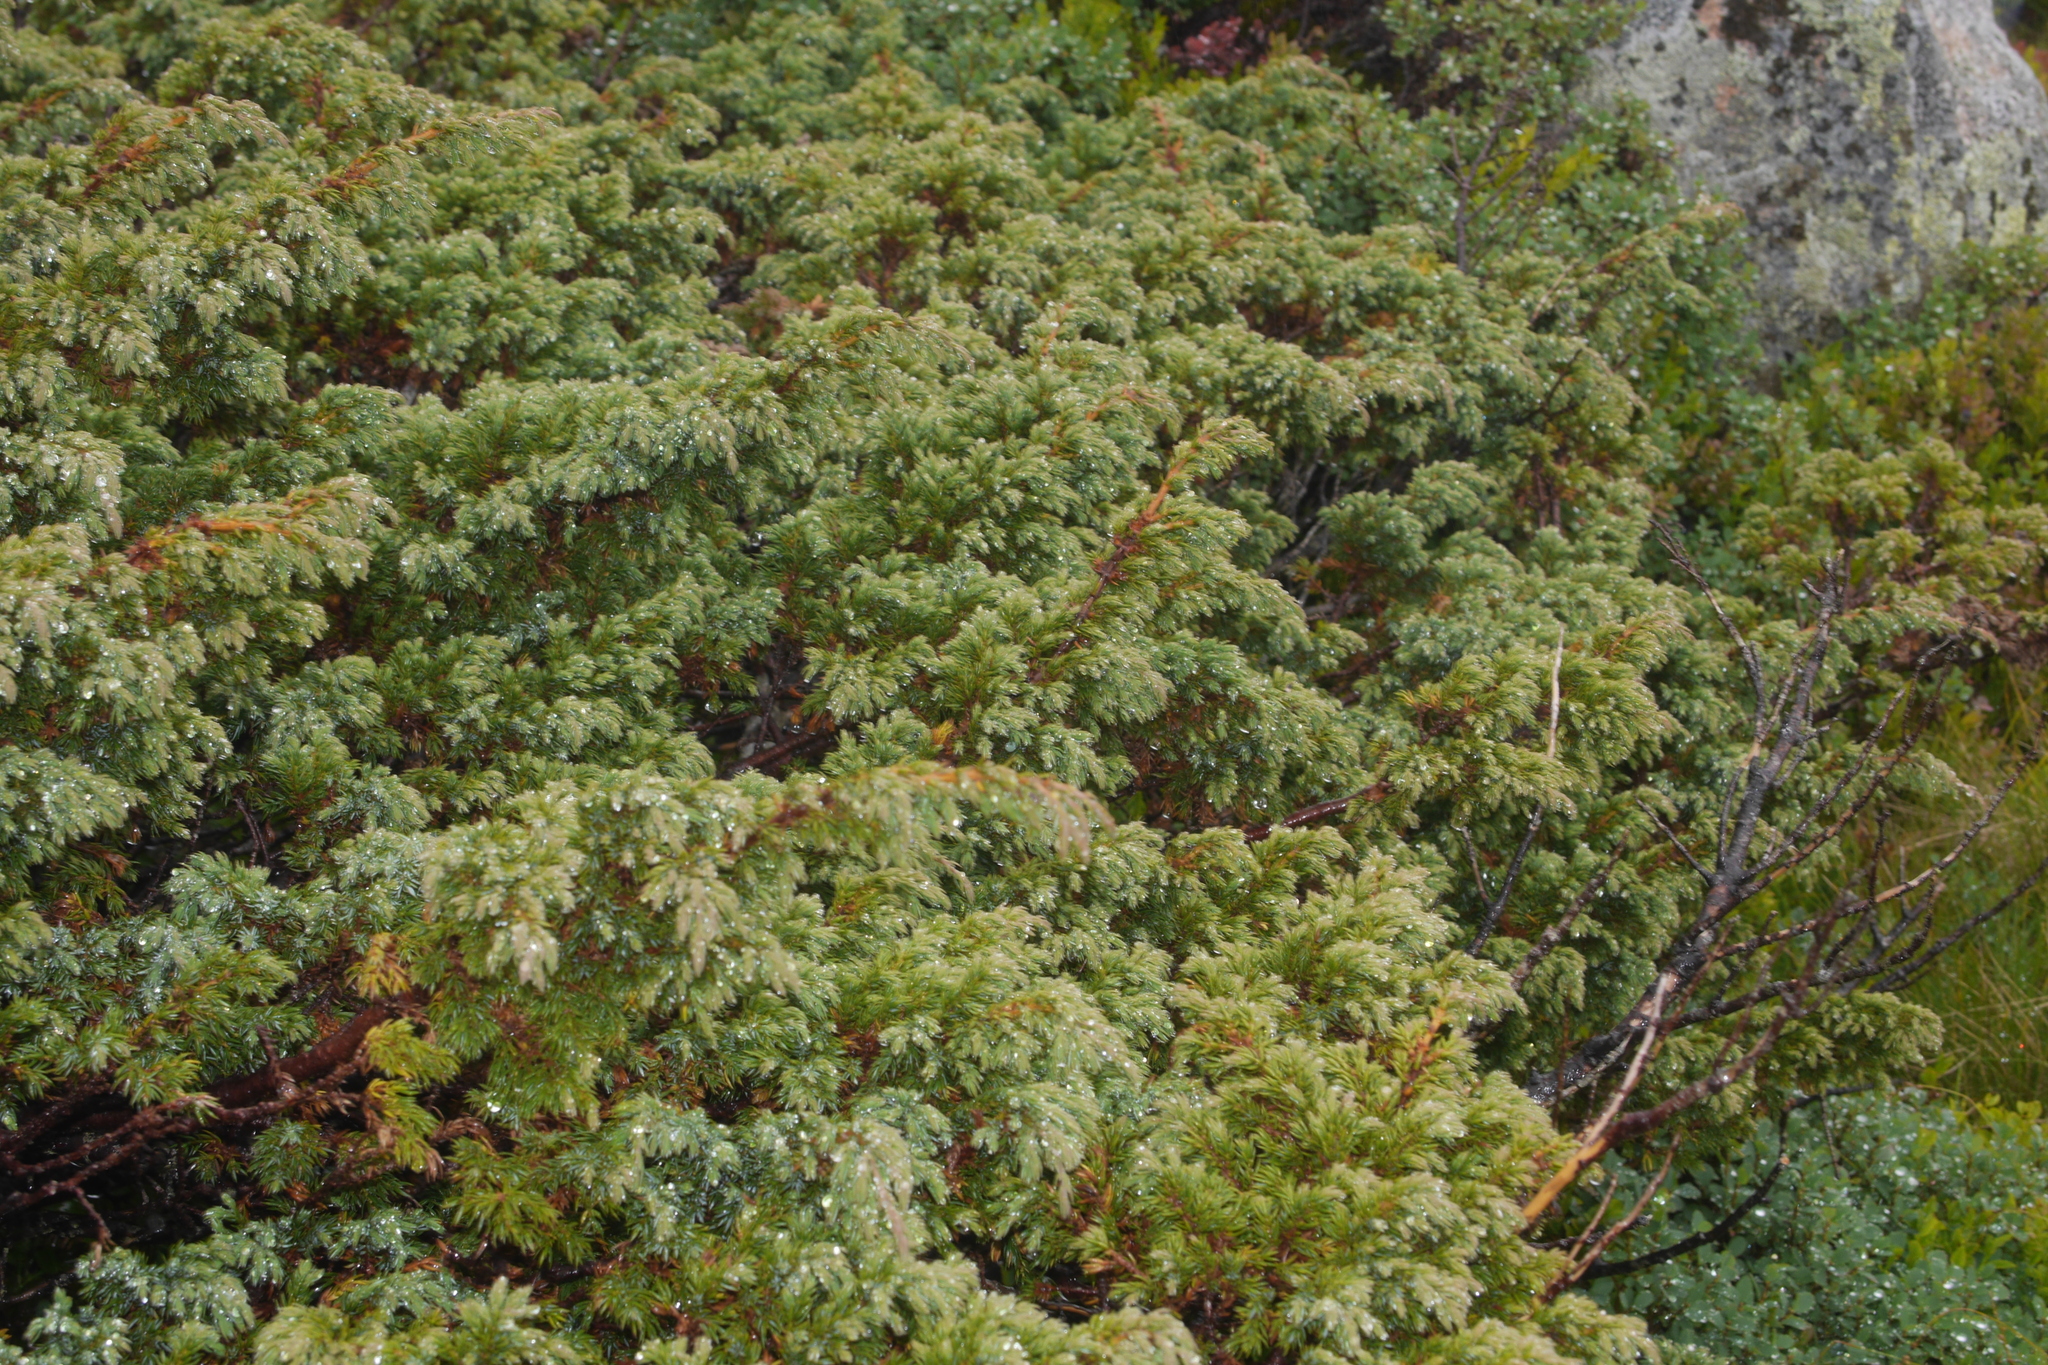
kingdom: Plantae
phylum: Tracheophyta
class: Pinopsida
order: Pinales
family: Cupressaceae
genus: Juniperus
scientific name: Juniperus communis
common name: Common juniper
